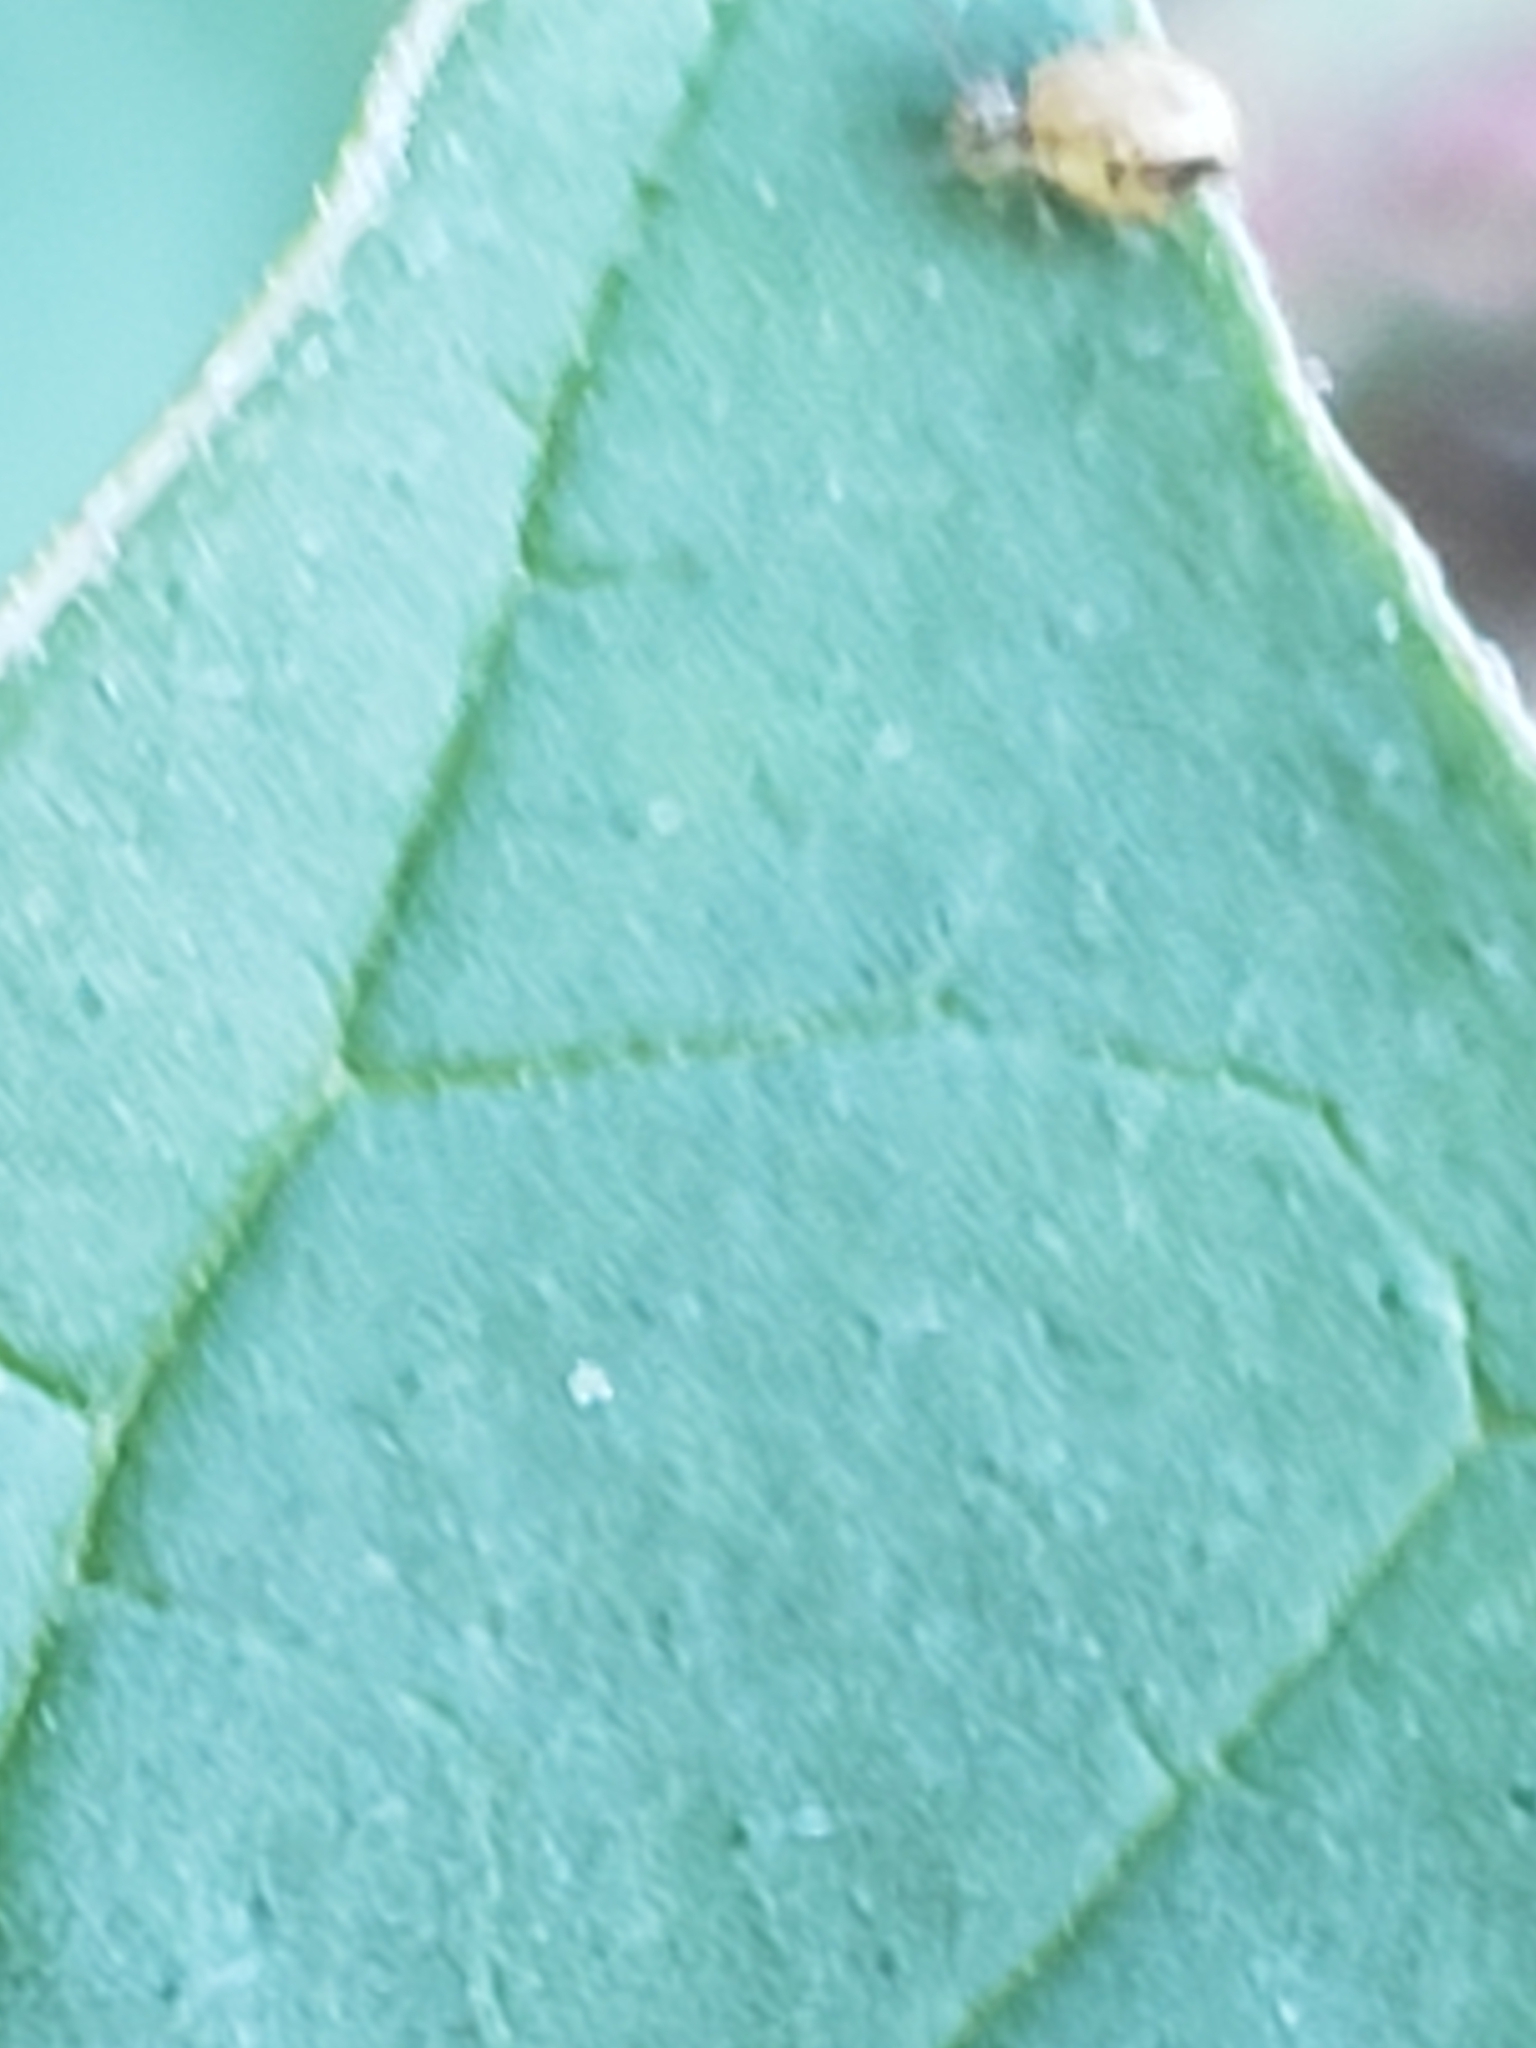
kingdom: Animalia
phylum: Arthropoda
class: Collembola
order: Symphypleona
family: Sminthuridae
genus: Sminthurus
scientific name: Sminthurus mencenbergae
